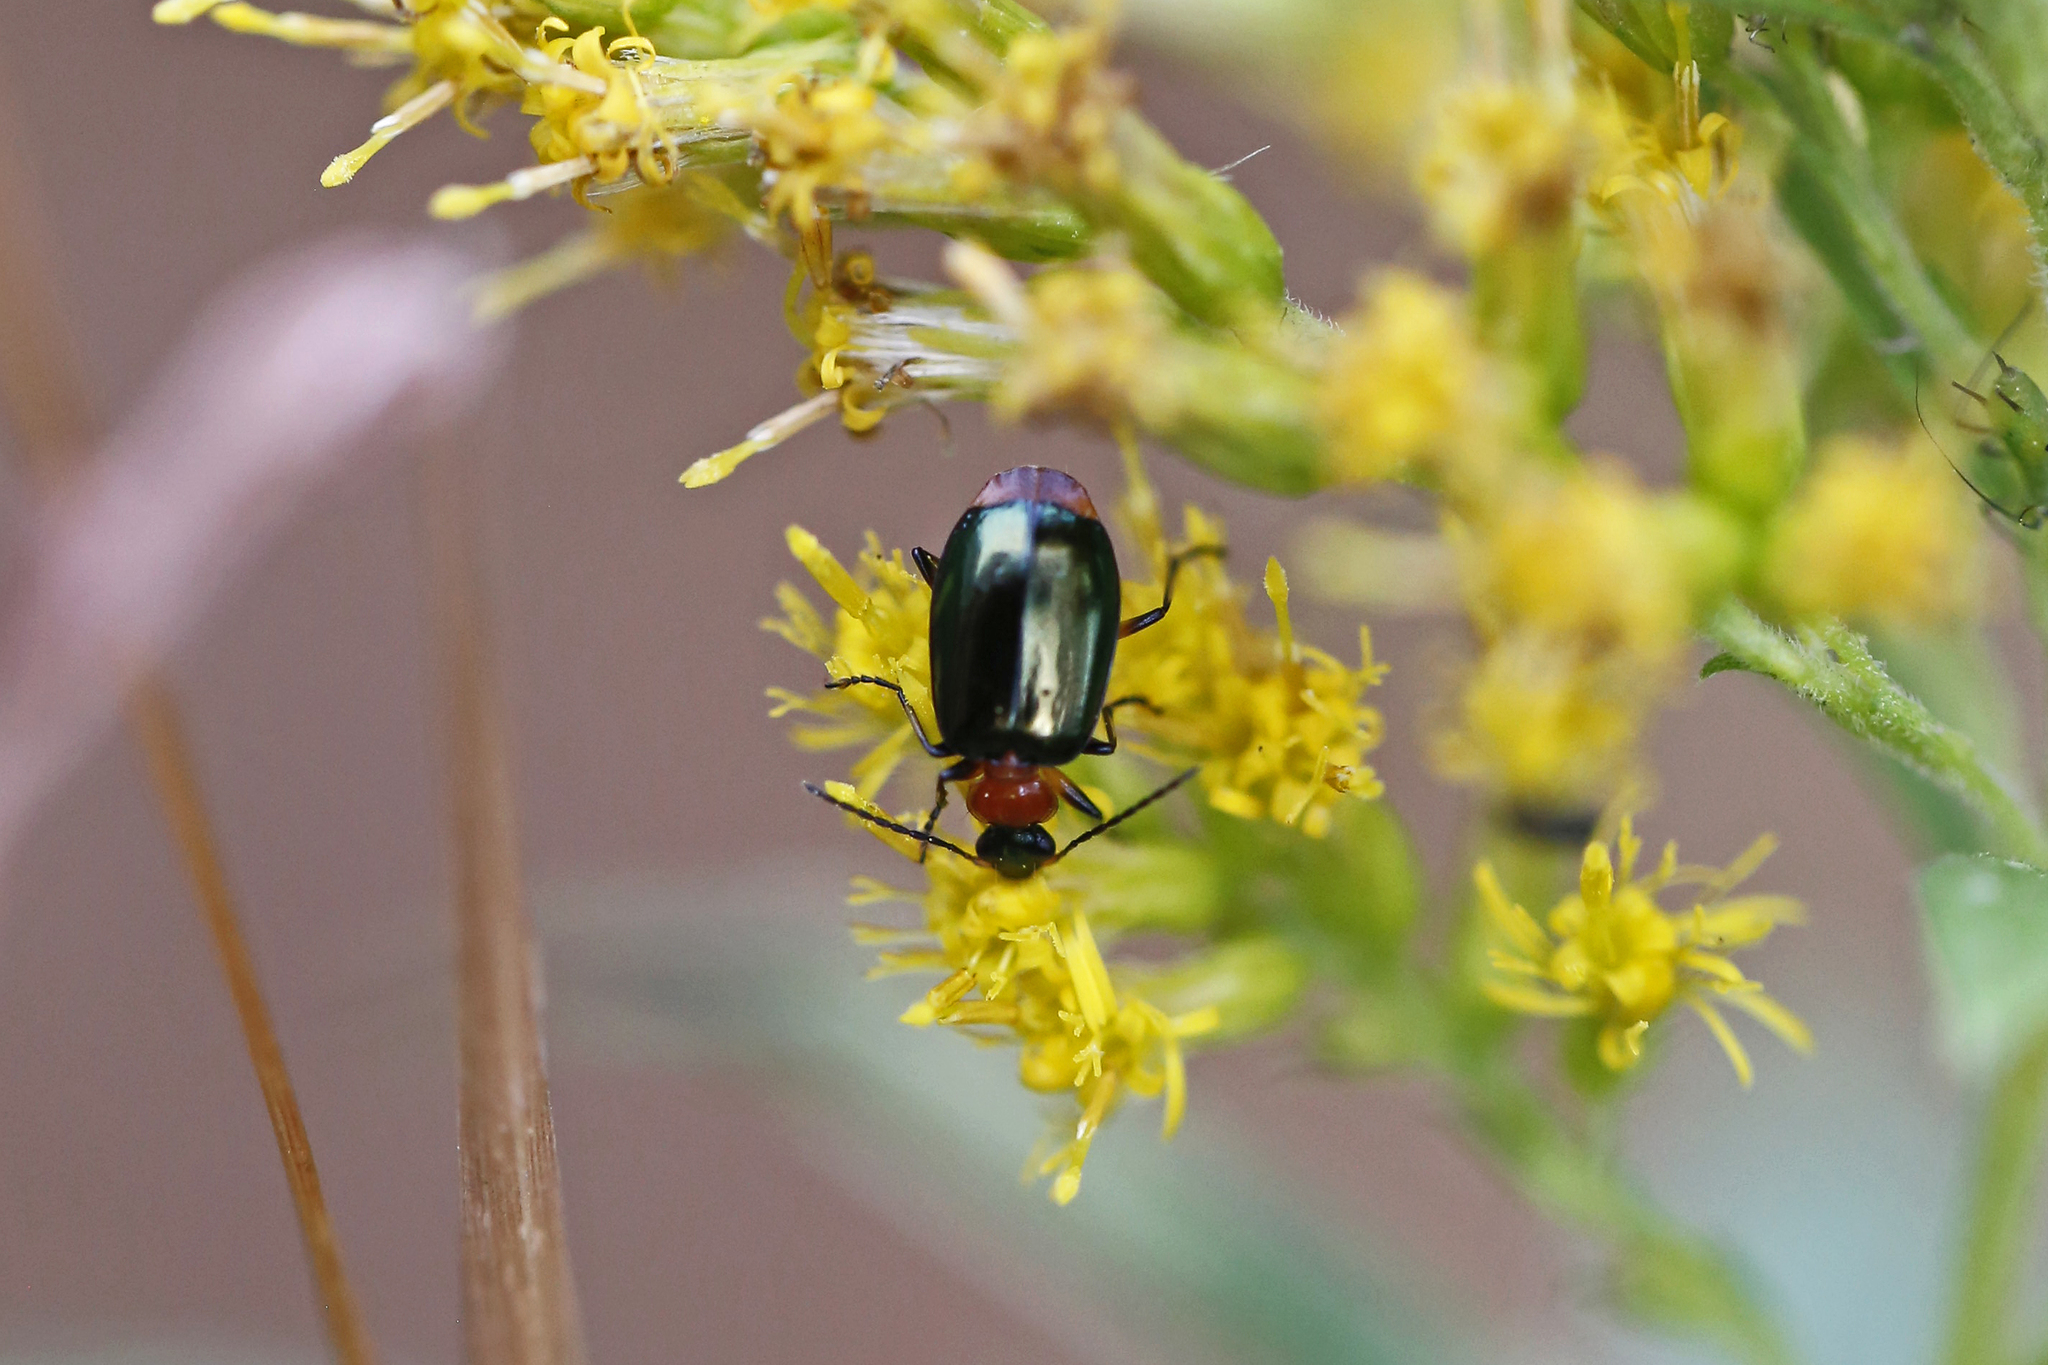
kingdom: Animalia
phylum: Arthropoda
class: Insecta
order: Coleoptera
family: Carabidae
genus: Lebia
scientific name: Lebia viridipennis
